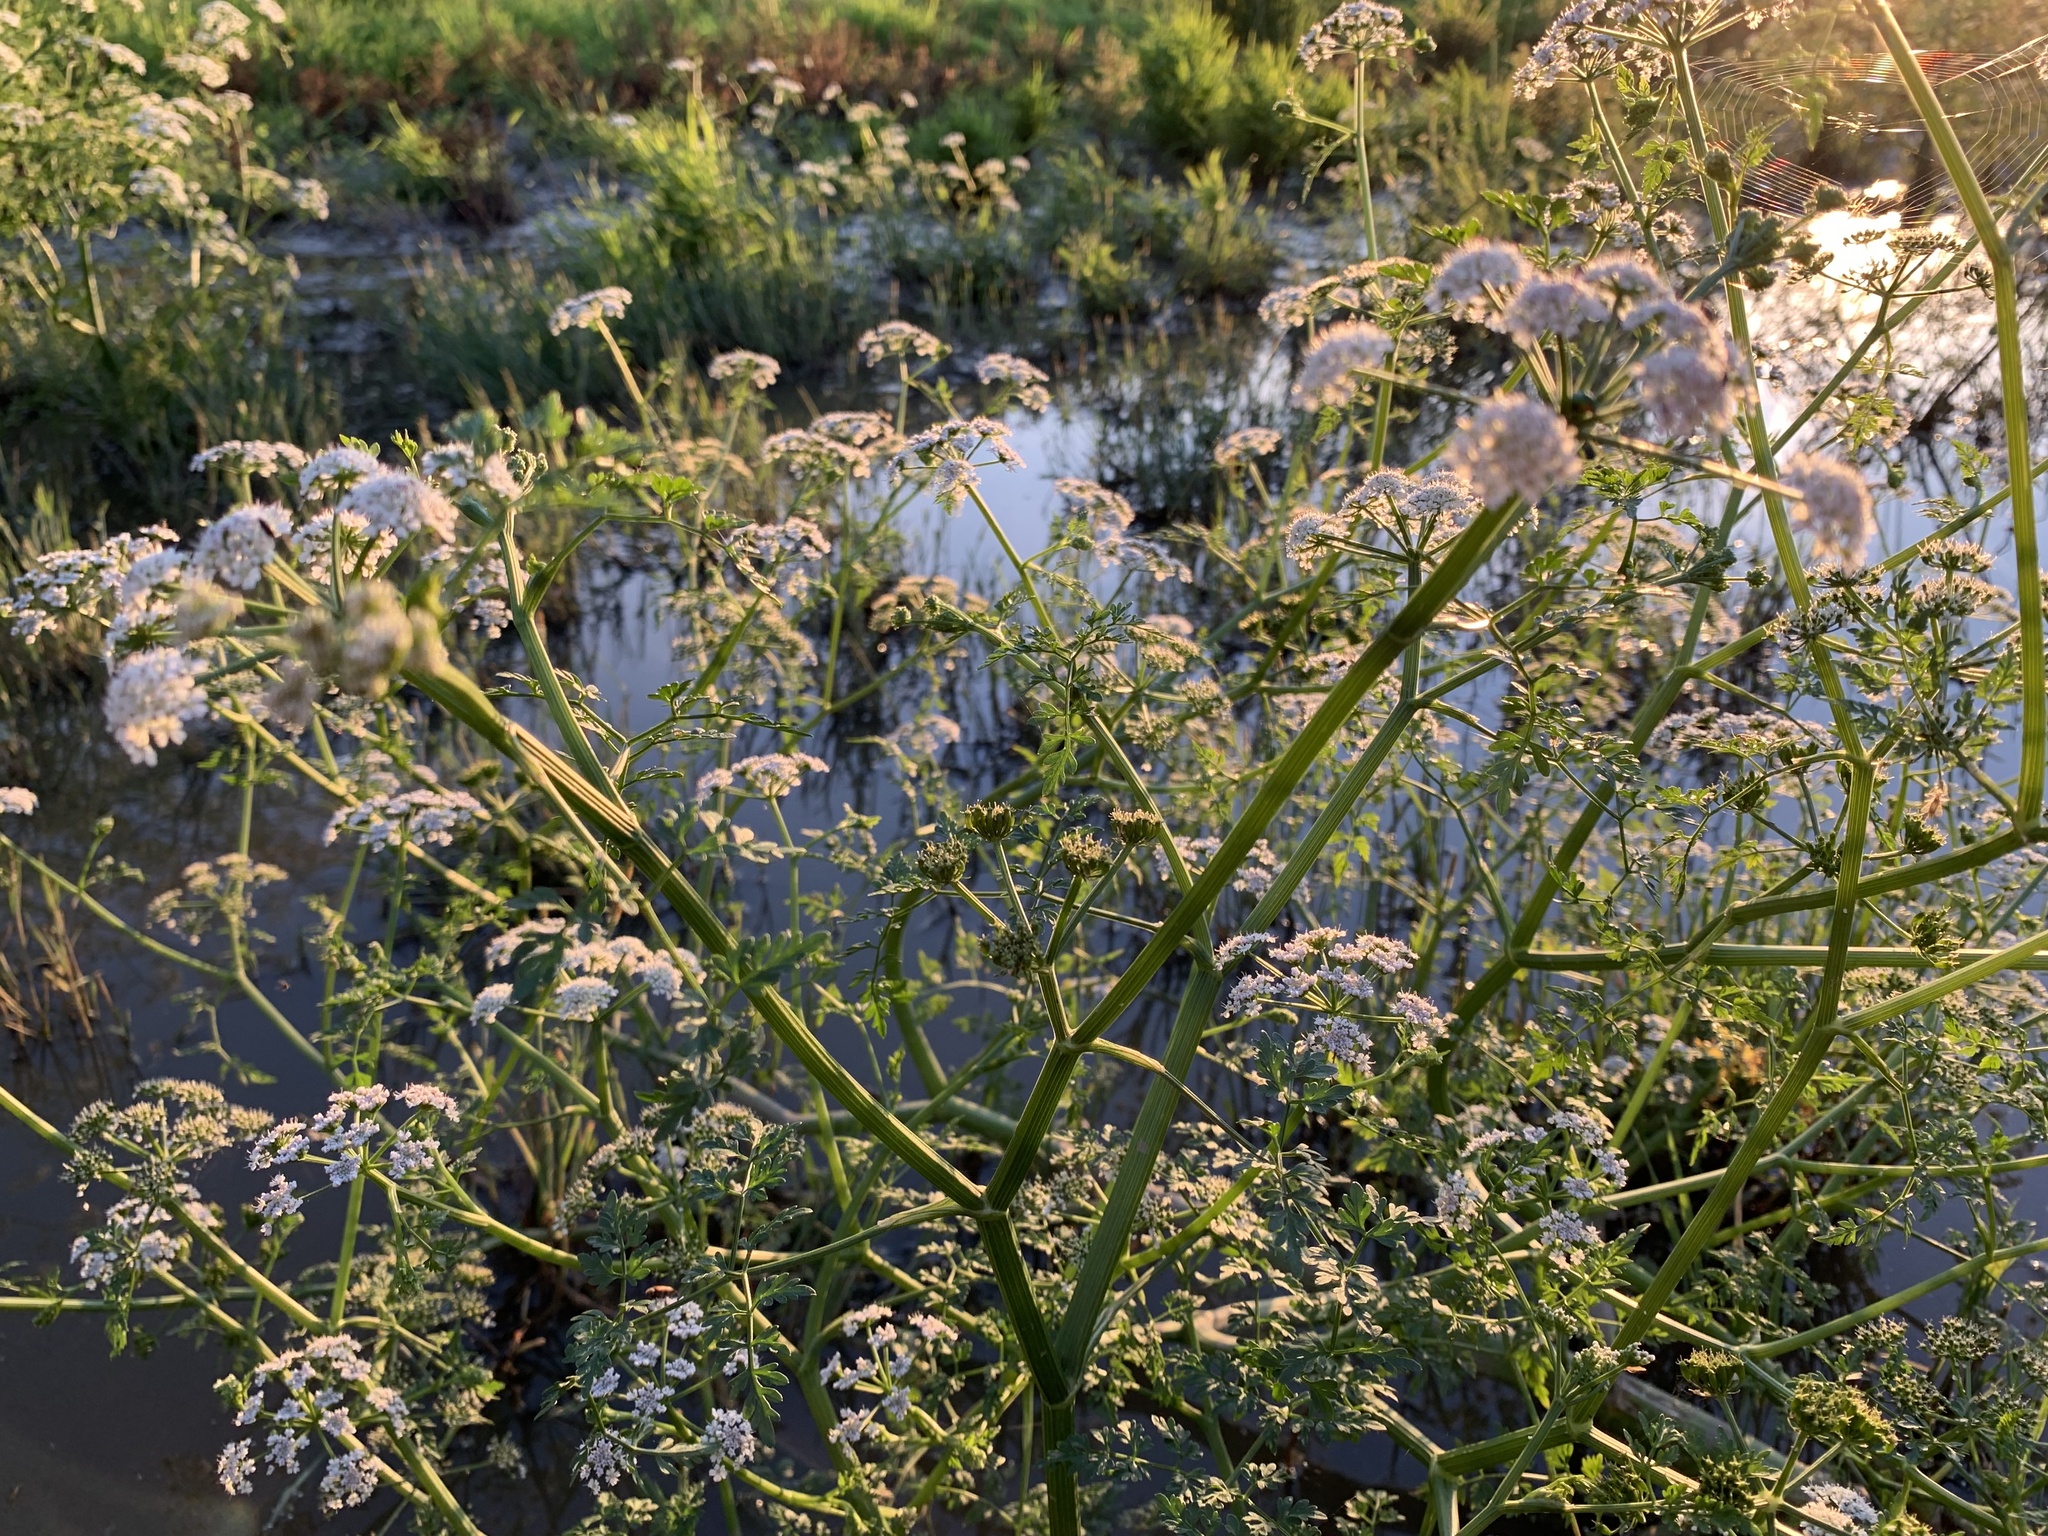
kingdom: Plantae
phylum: Tracheophyta
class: Magnoliopsida
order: Apiales
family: Apiaceae
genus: Oenanthe
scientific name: Oenanthe aquatica
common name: Fine-leaved water-dropwort
